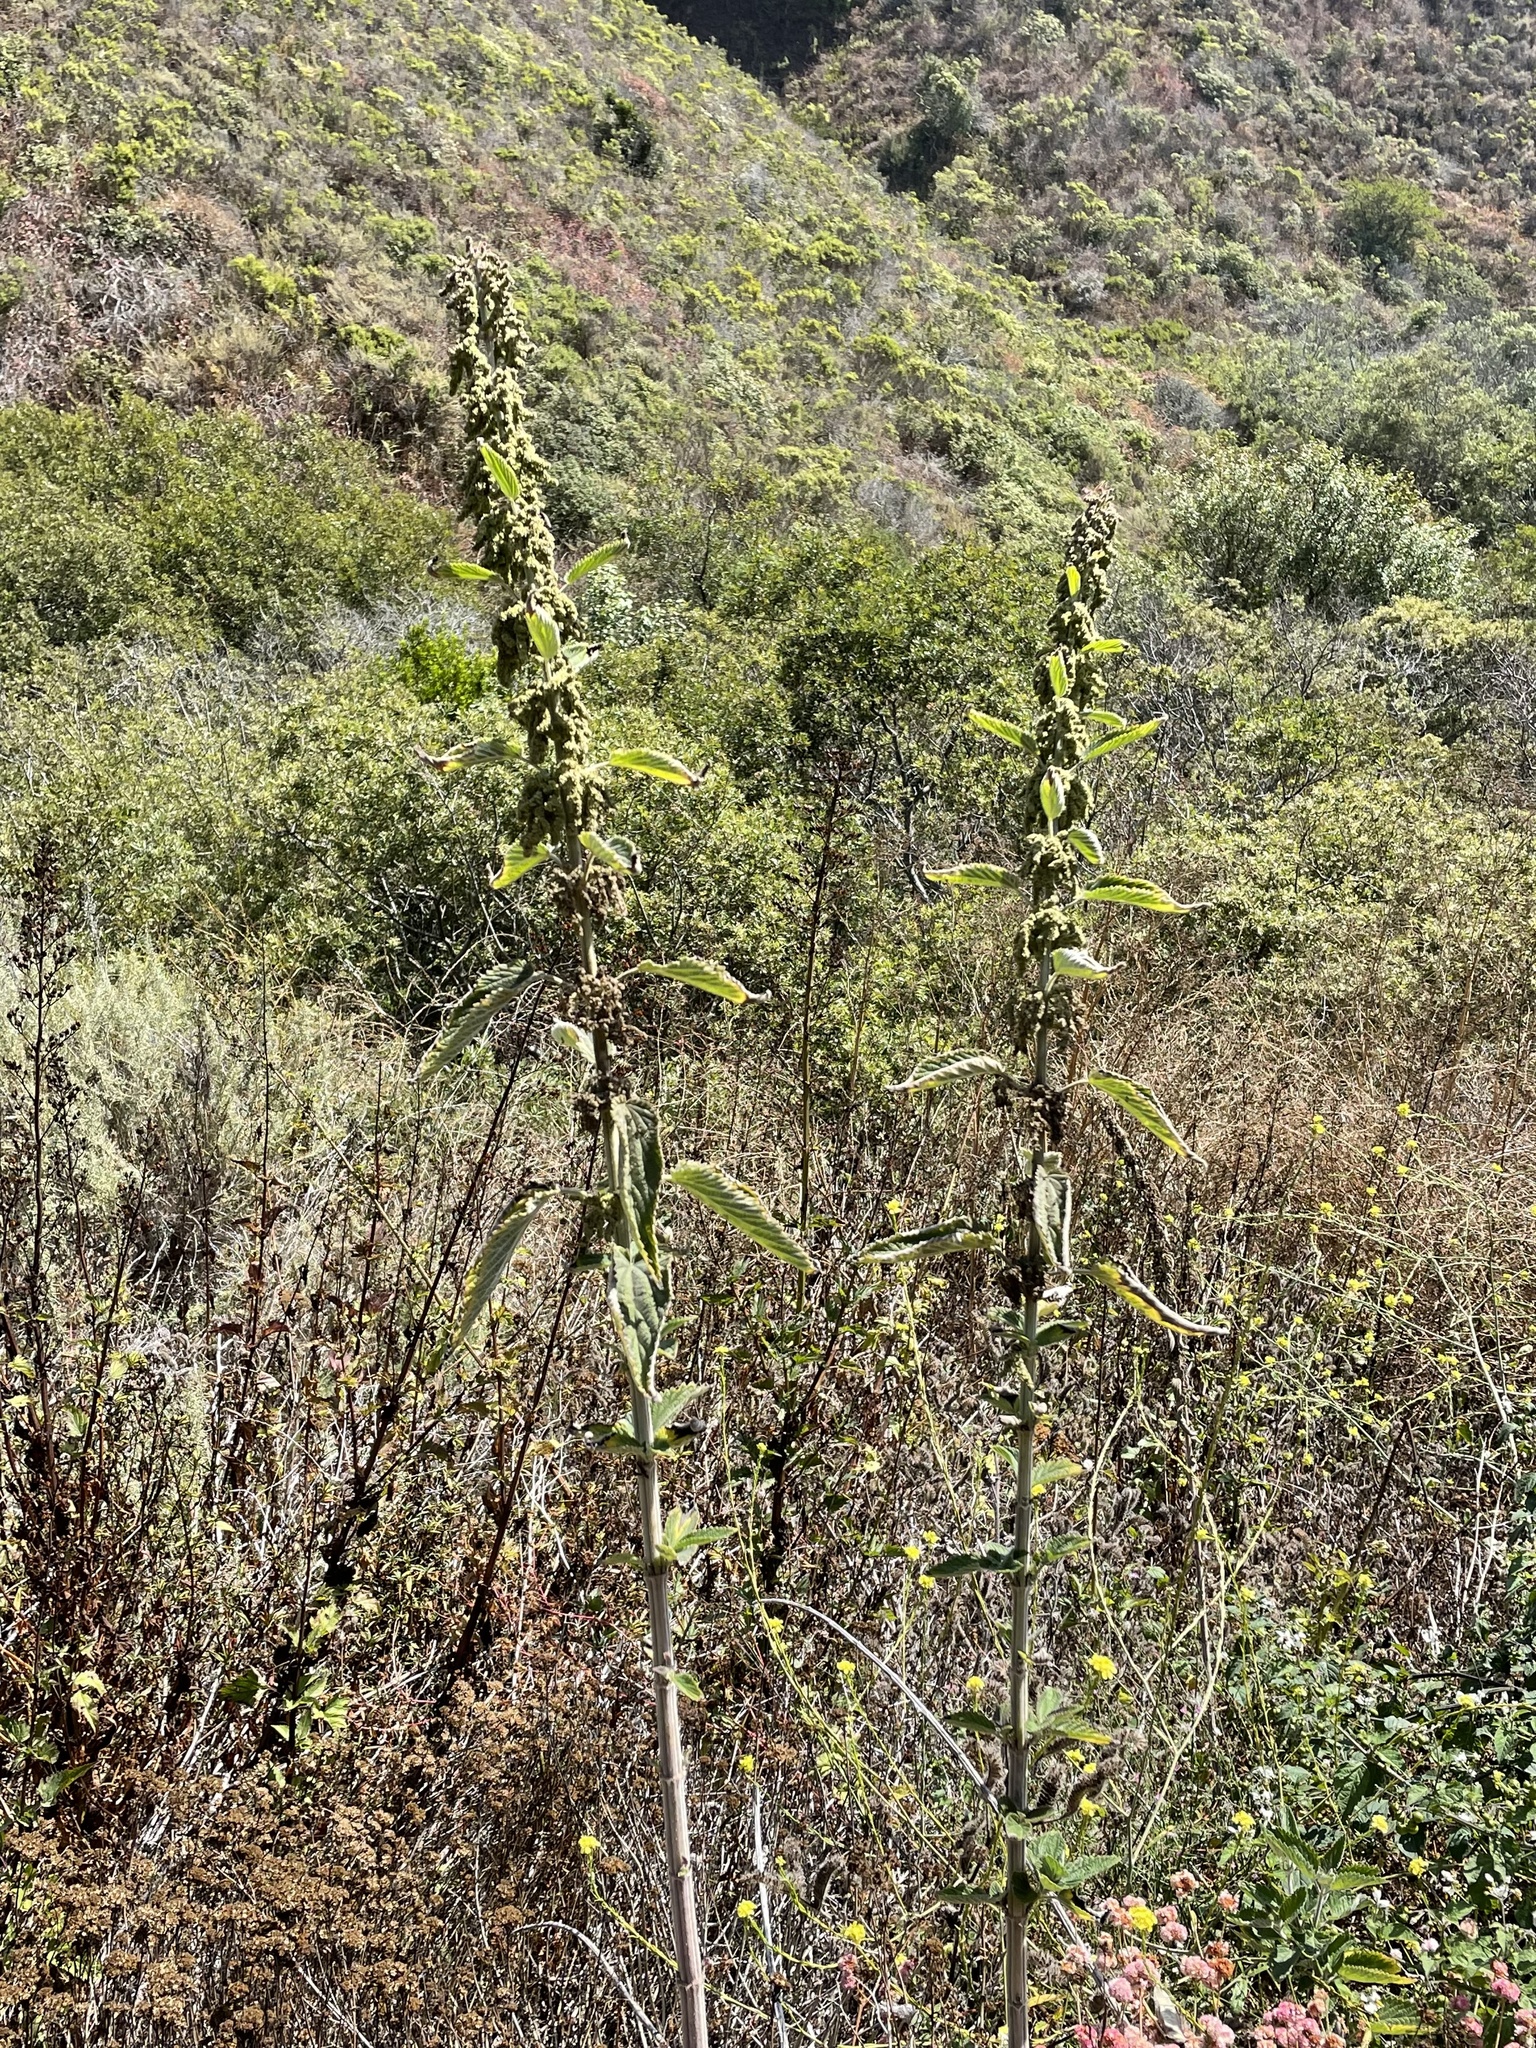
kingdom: Plantae
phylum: Tracheophyta
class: Magnoliopsida
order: Rosales
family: Urticaceae
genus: Urtica
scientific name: Urtica dioica
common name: Common nettle
